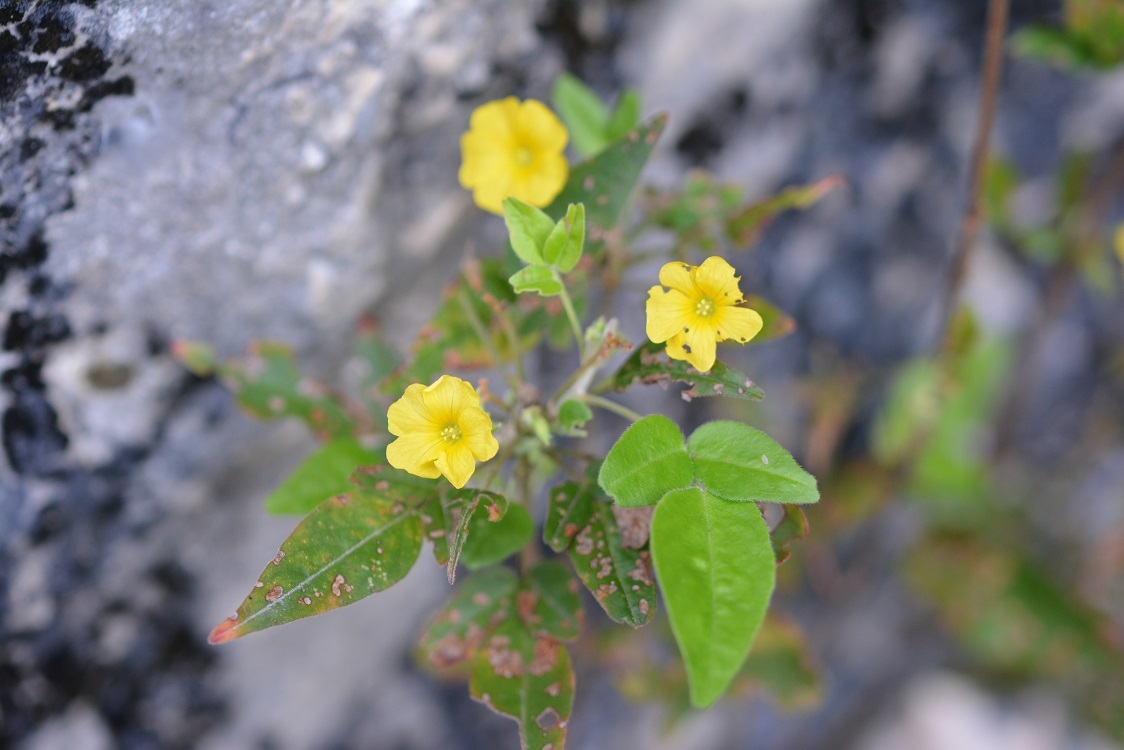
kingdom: Plantae
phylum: Tracheophyta
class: Magnoliopsida
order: Oxalidales
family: Oxalidaceae
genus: Oxalis
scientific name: Oxalis frutescens
